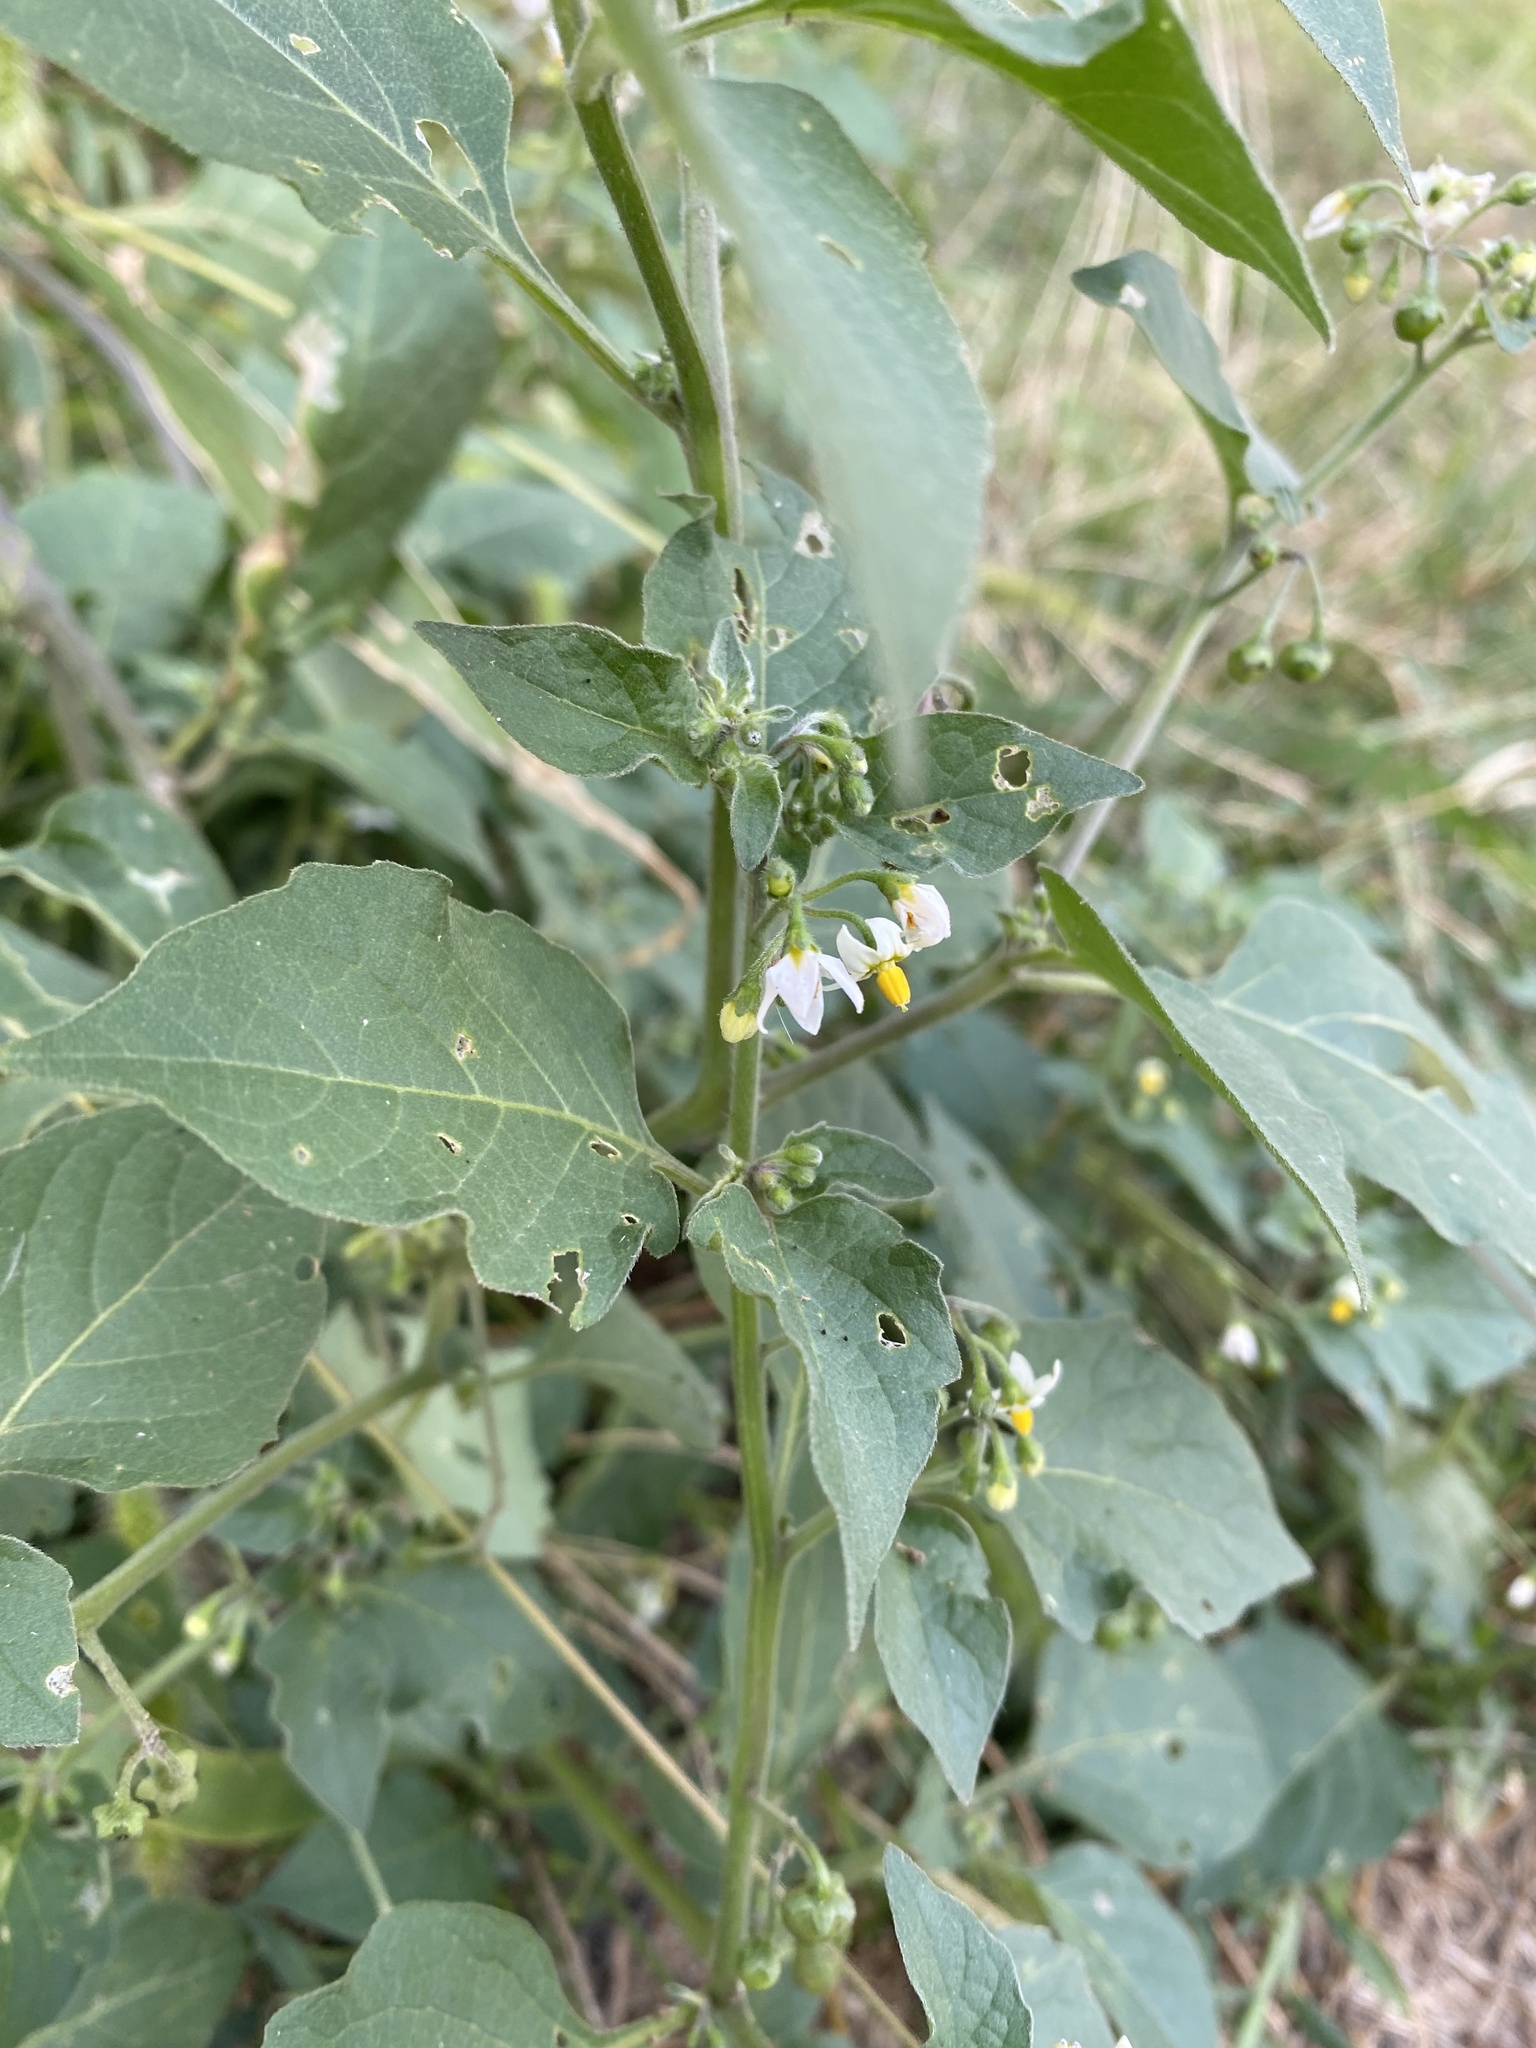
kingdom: Plantae
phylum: Tracheophyta
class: Magnoliopsida
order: Solanales
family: Solanaceae
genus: Solanum
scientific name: Solanum nigrum
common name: Black nightshade
